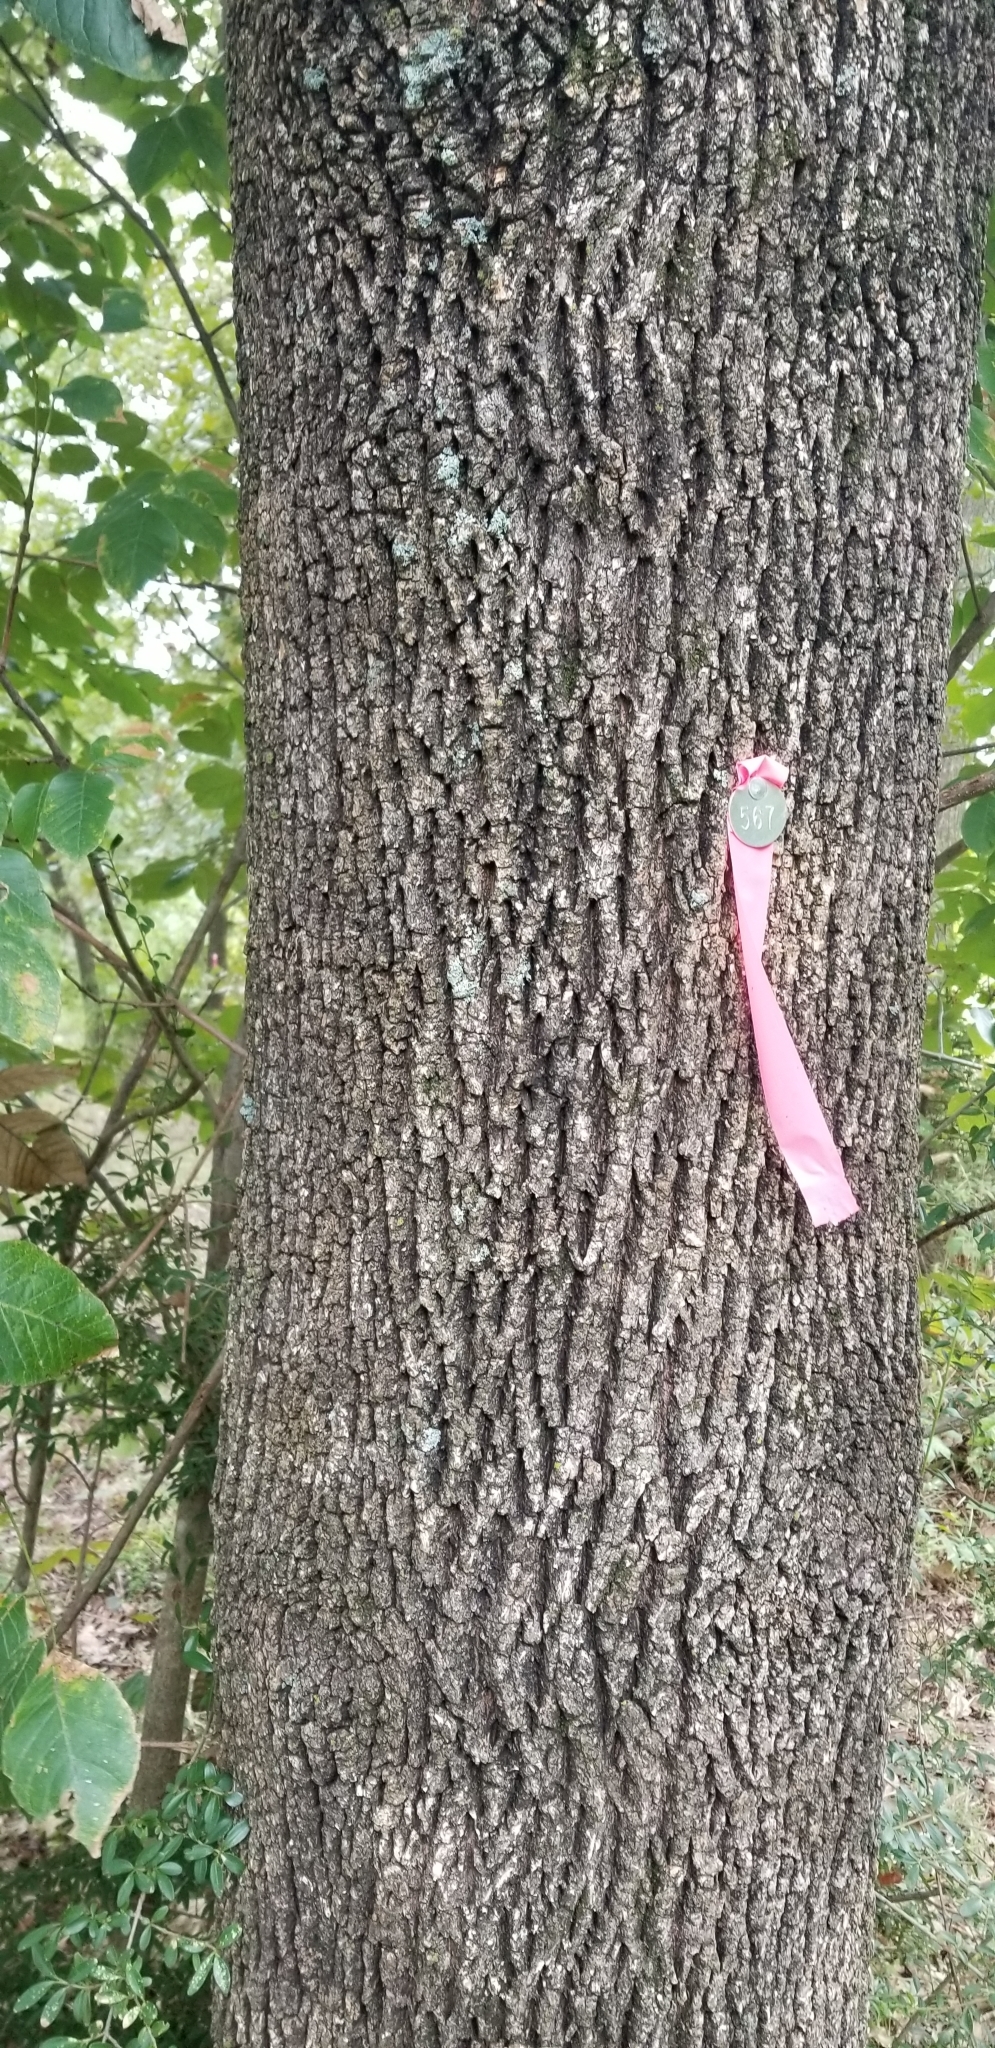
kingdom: Plantae
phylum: Tracheophyta
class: Magnoliopsida
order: Lamiales
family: Oleaceae
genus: Fraxinus
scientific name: Fraxinus
